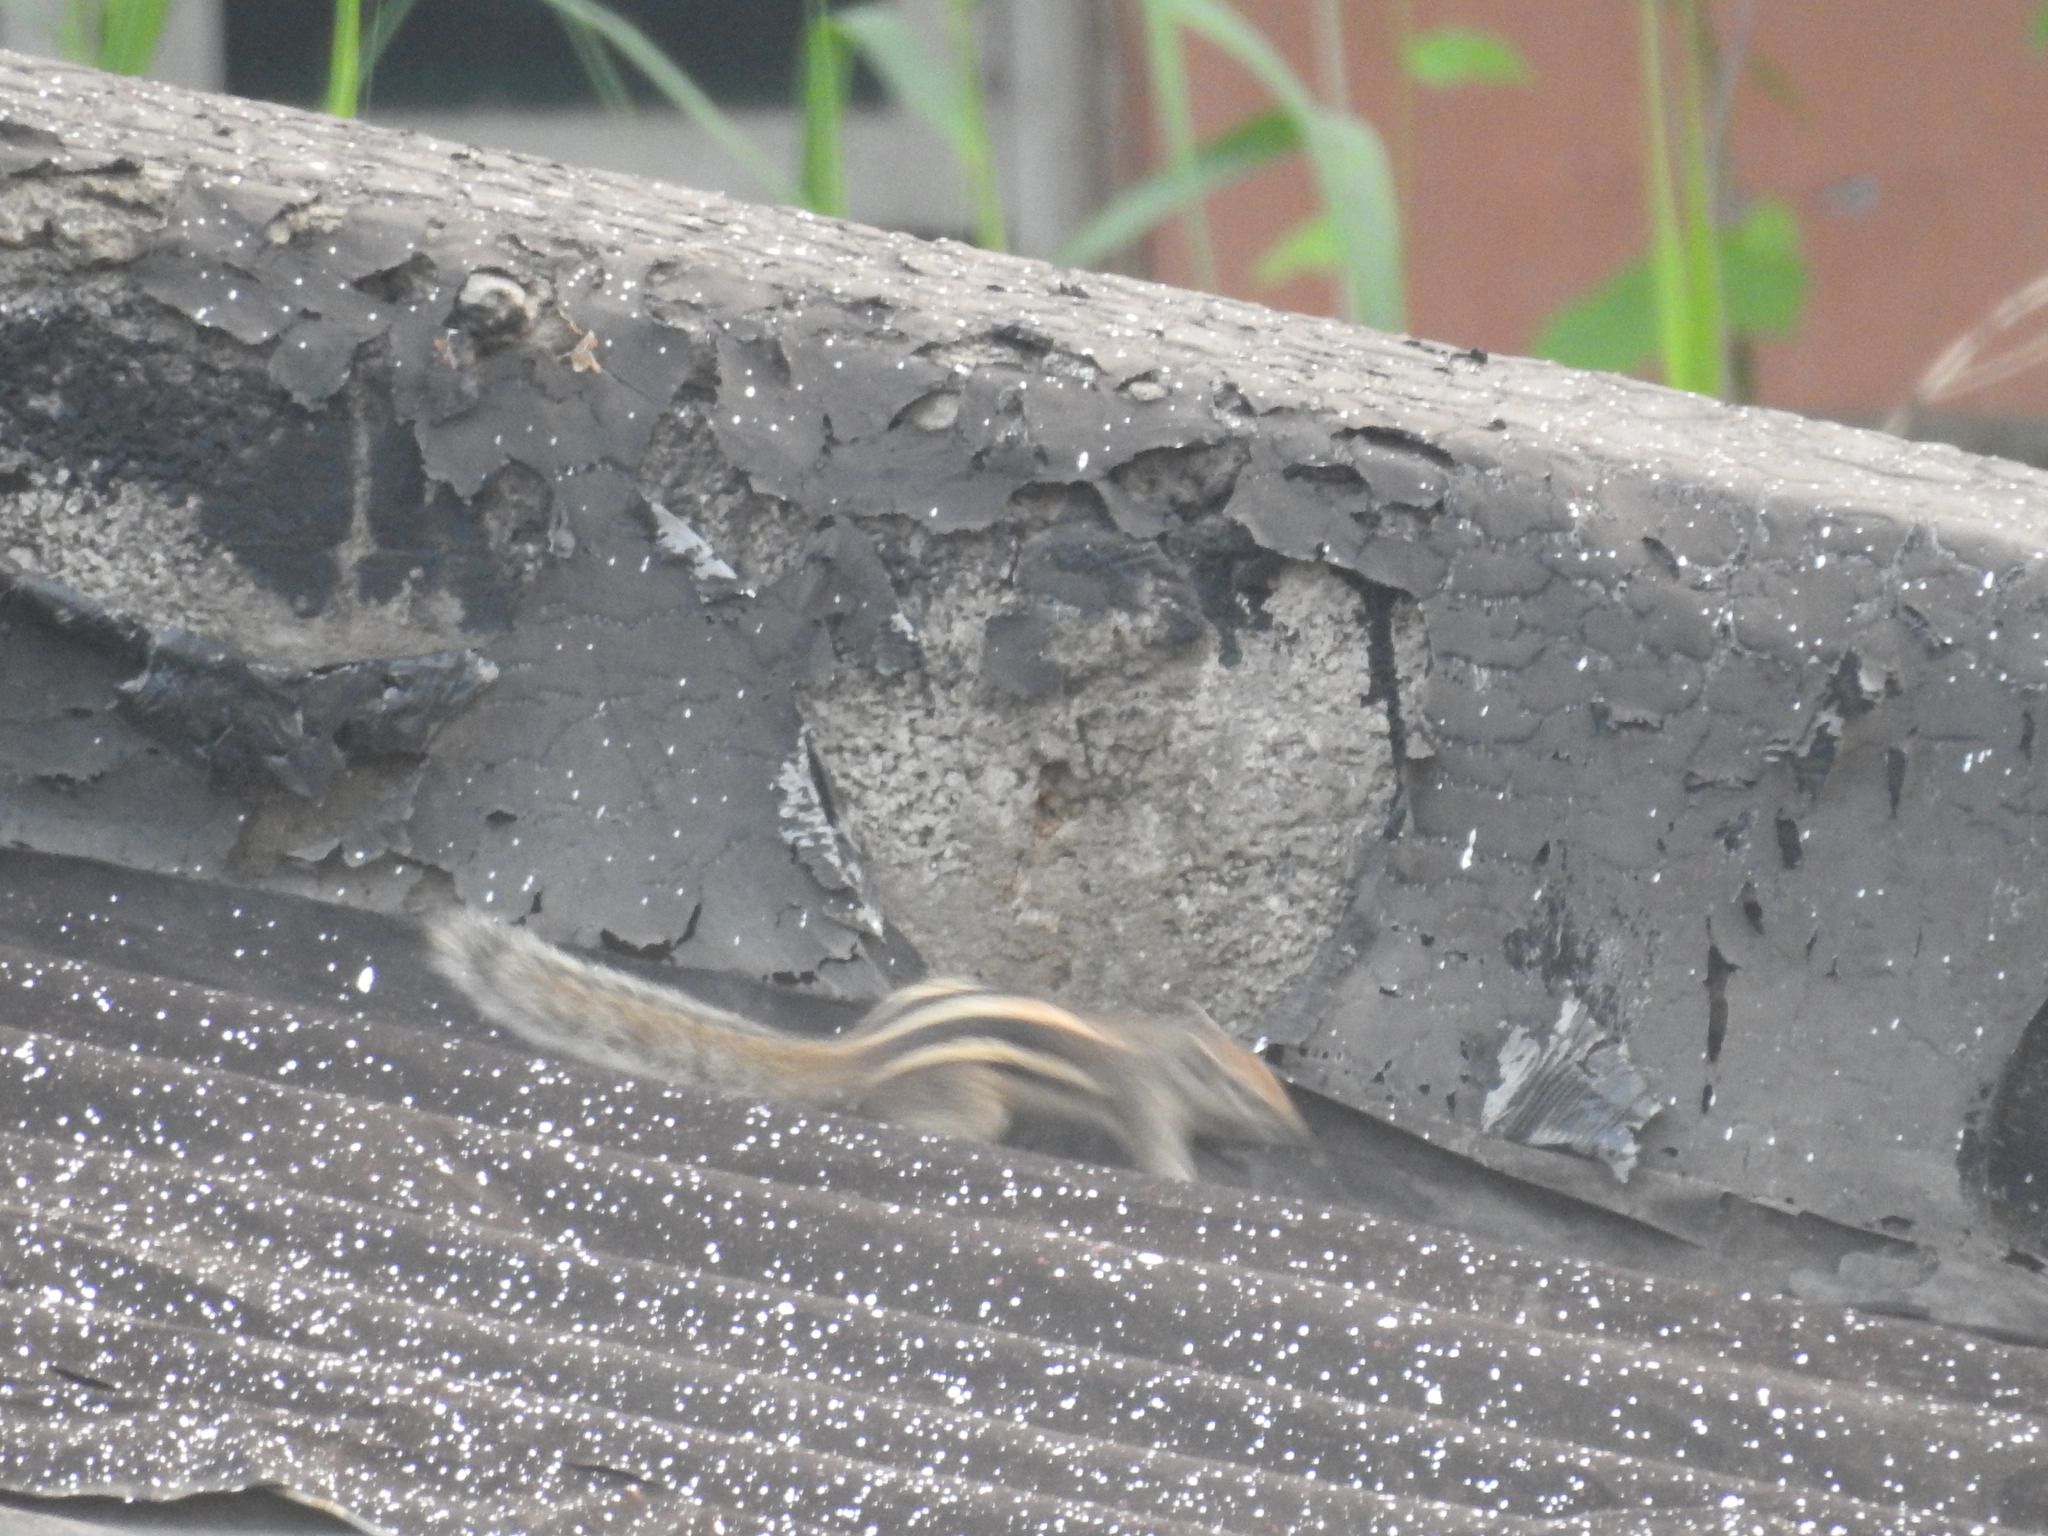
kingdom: Animalia
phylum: Chordata
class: Mammalia
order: Rodentia
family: Sciuridae
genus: Funambulus
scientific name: Funambulus palmarum
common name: Indian palm squirrel
